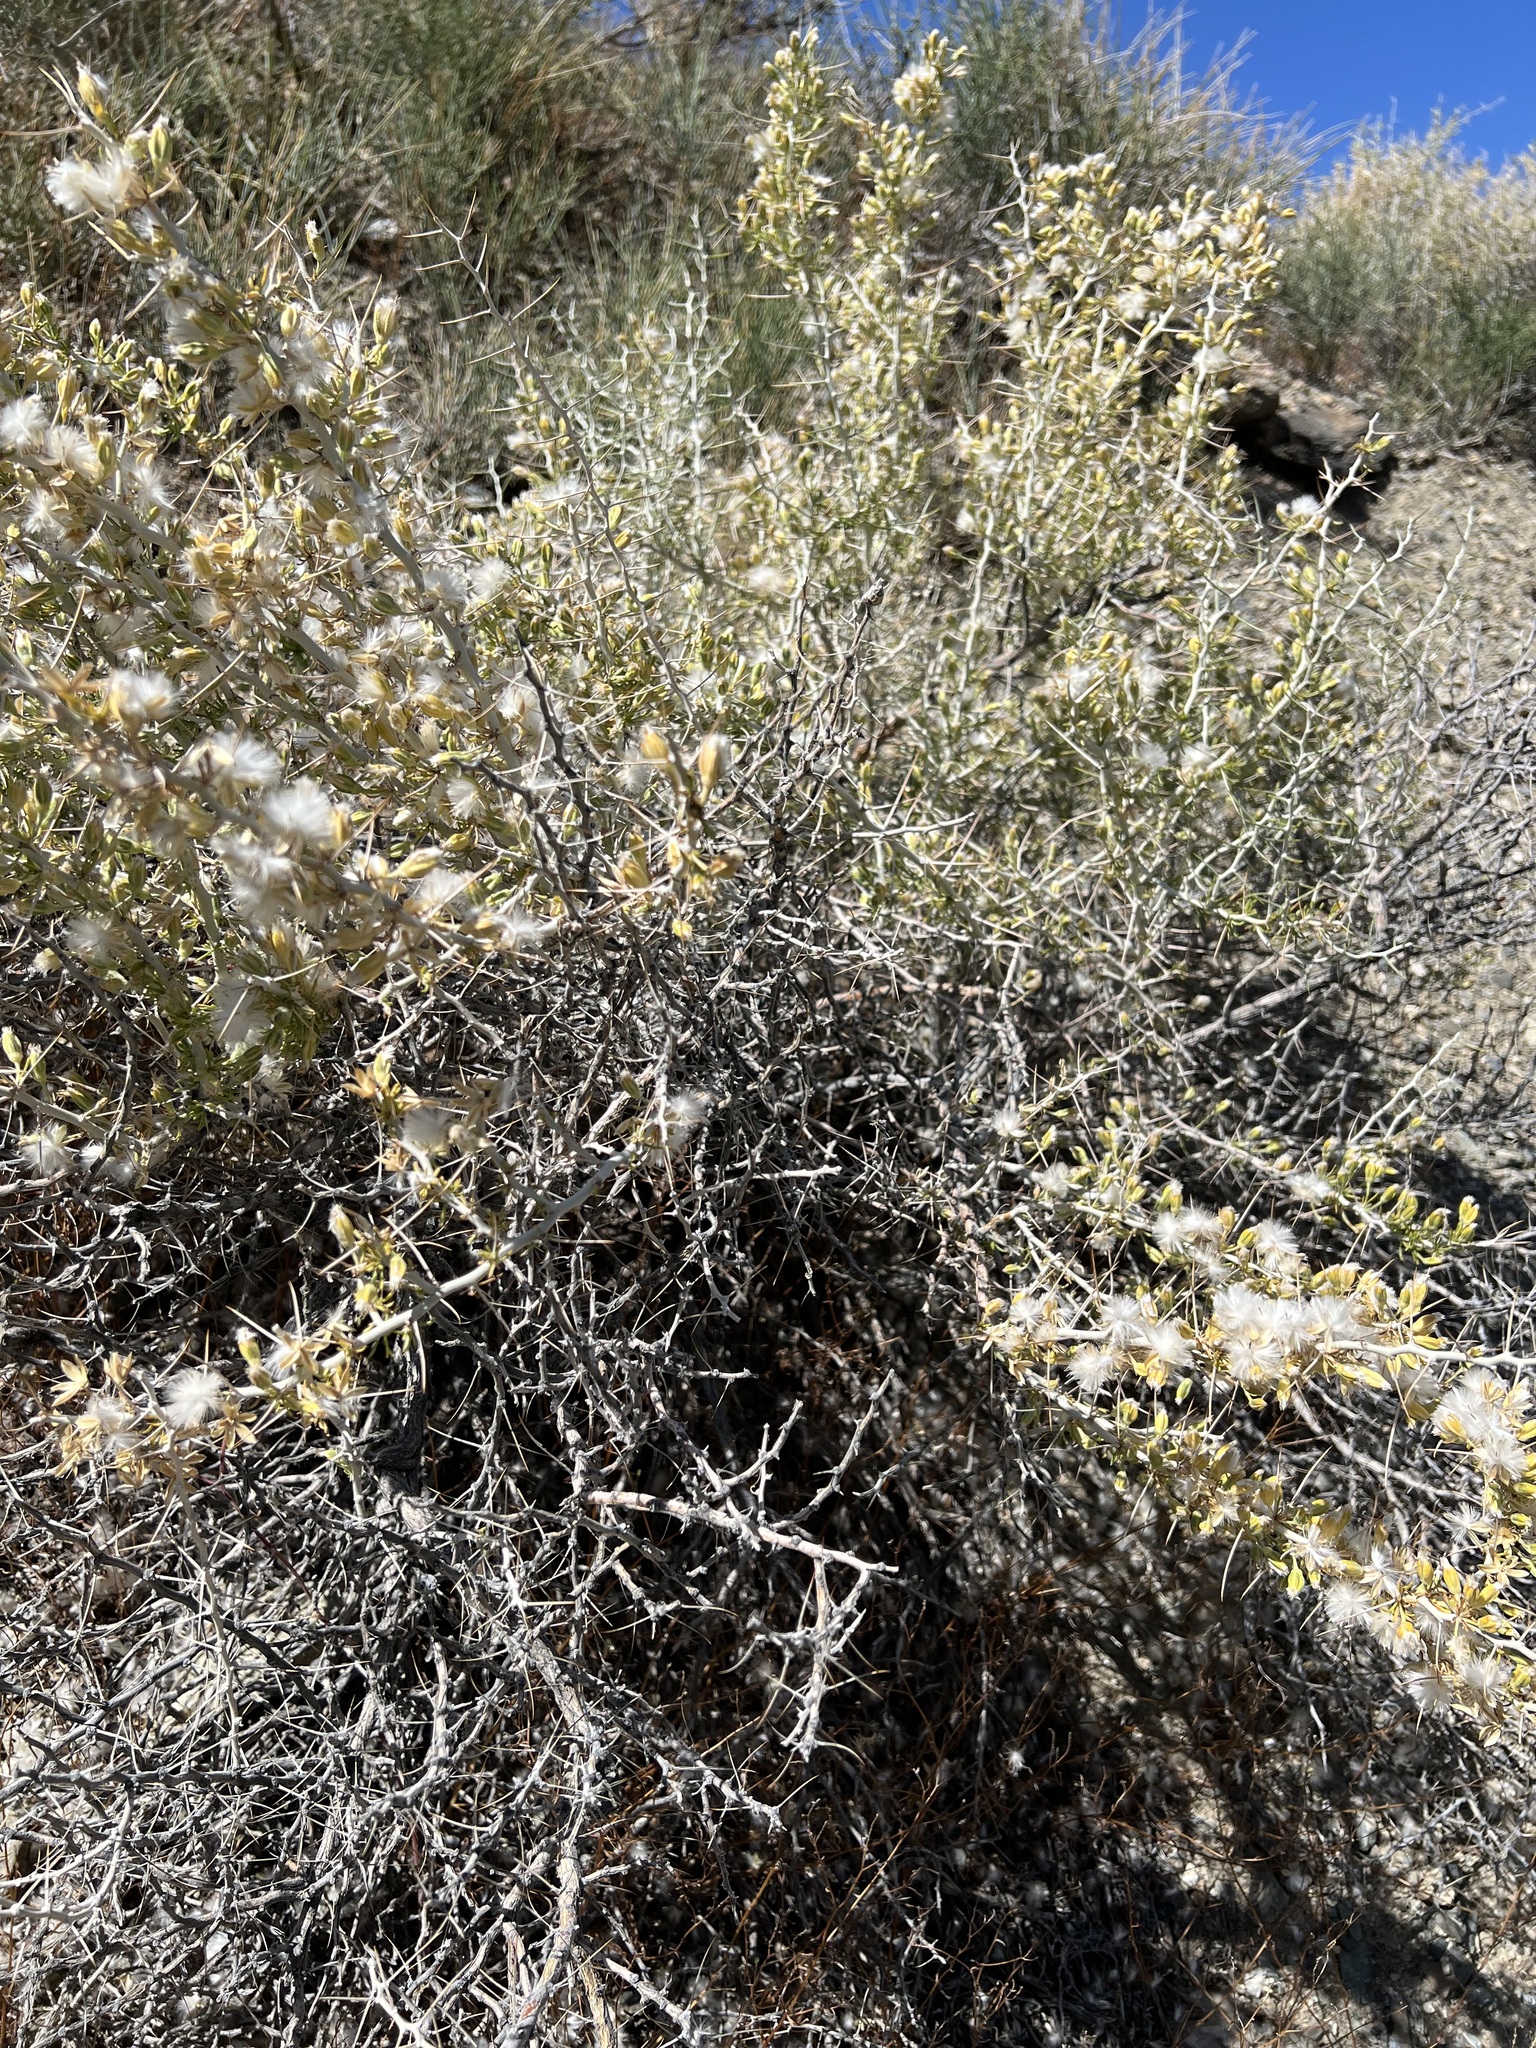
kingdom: Plantae
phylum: Tracheophyta
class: Magnoliopsida
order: Asterales
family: Asteraceae
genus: Tetradymia
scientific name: Tetradymia axillaris
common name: Long-spine horsebrush
